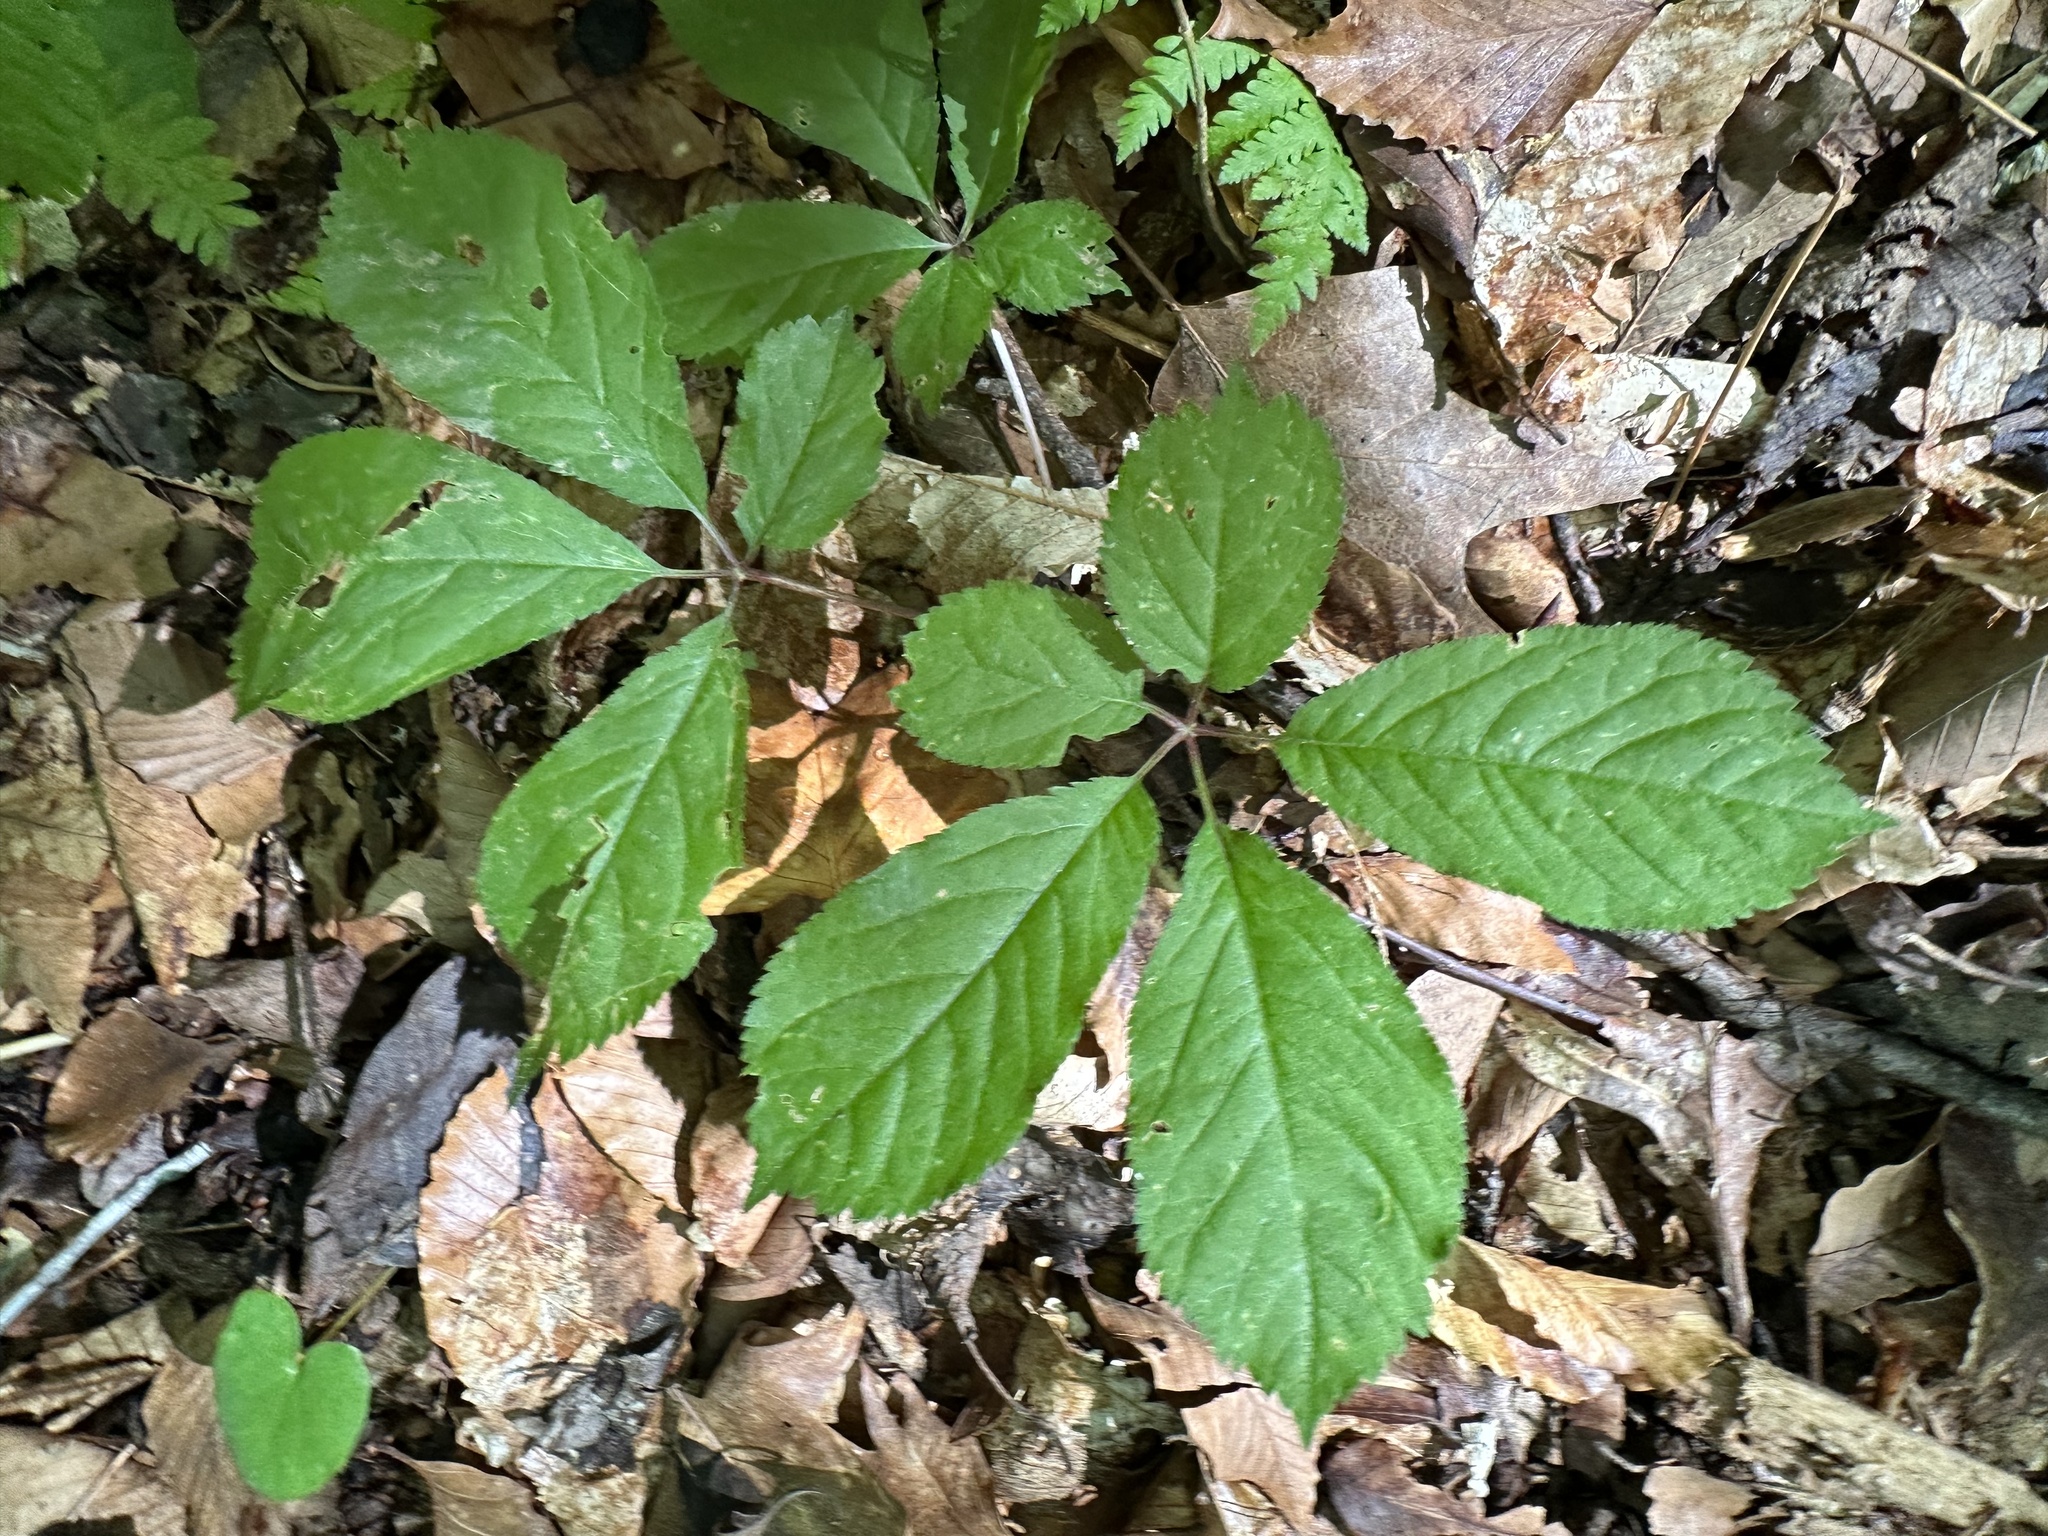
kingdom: Plantae
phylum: Tracheophyta
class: Magnoliopsida
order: Apiales
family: Araliaceae
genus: Panax
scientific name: Panax quinquefolius
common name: American ginseng
